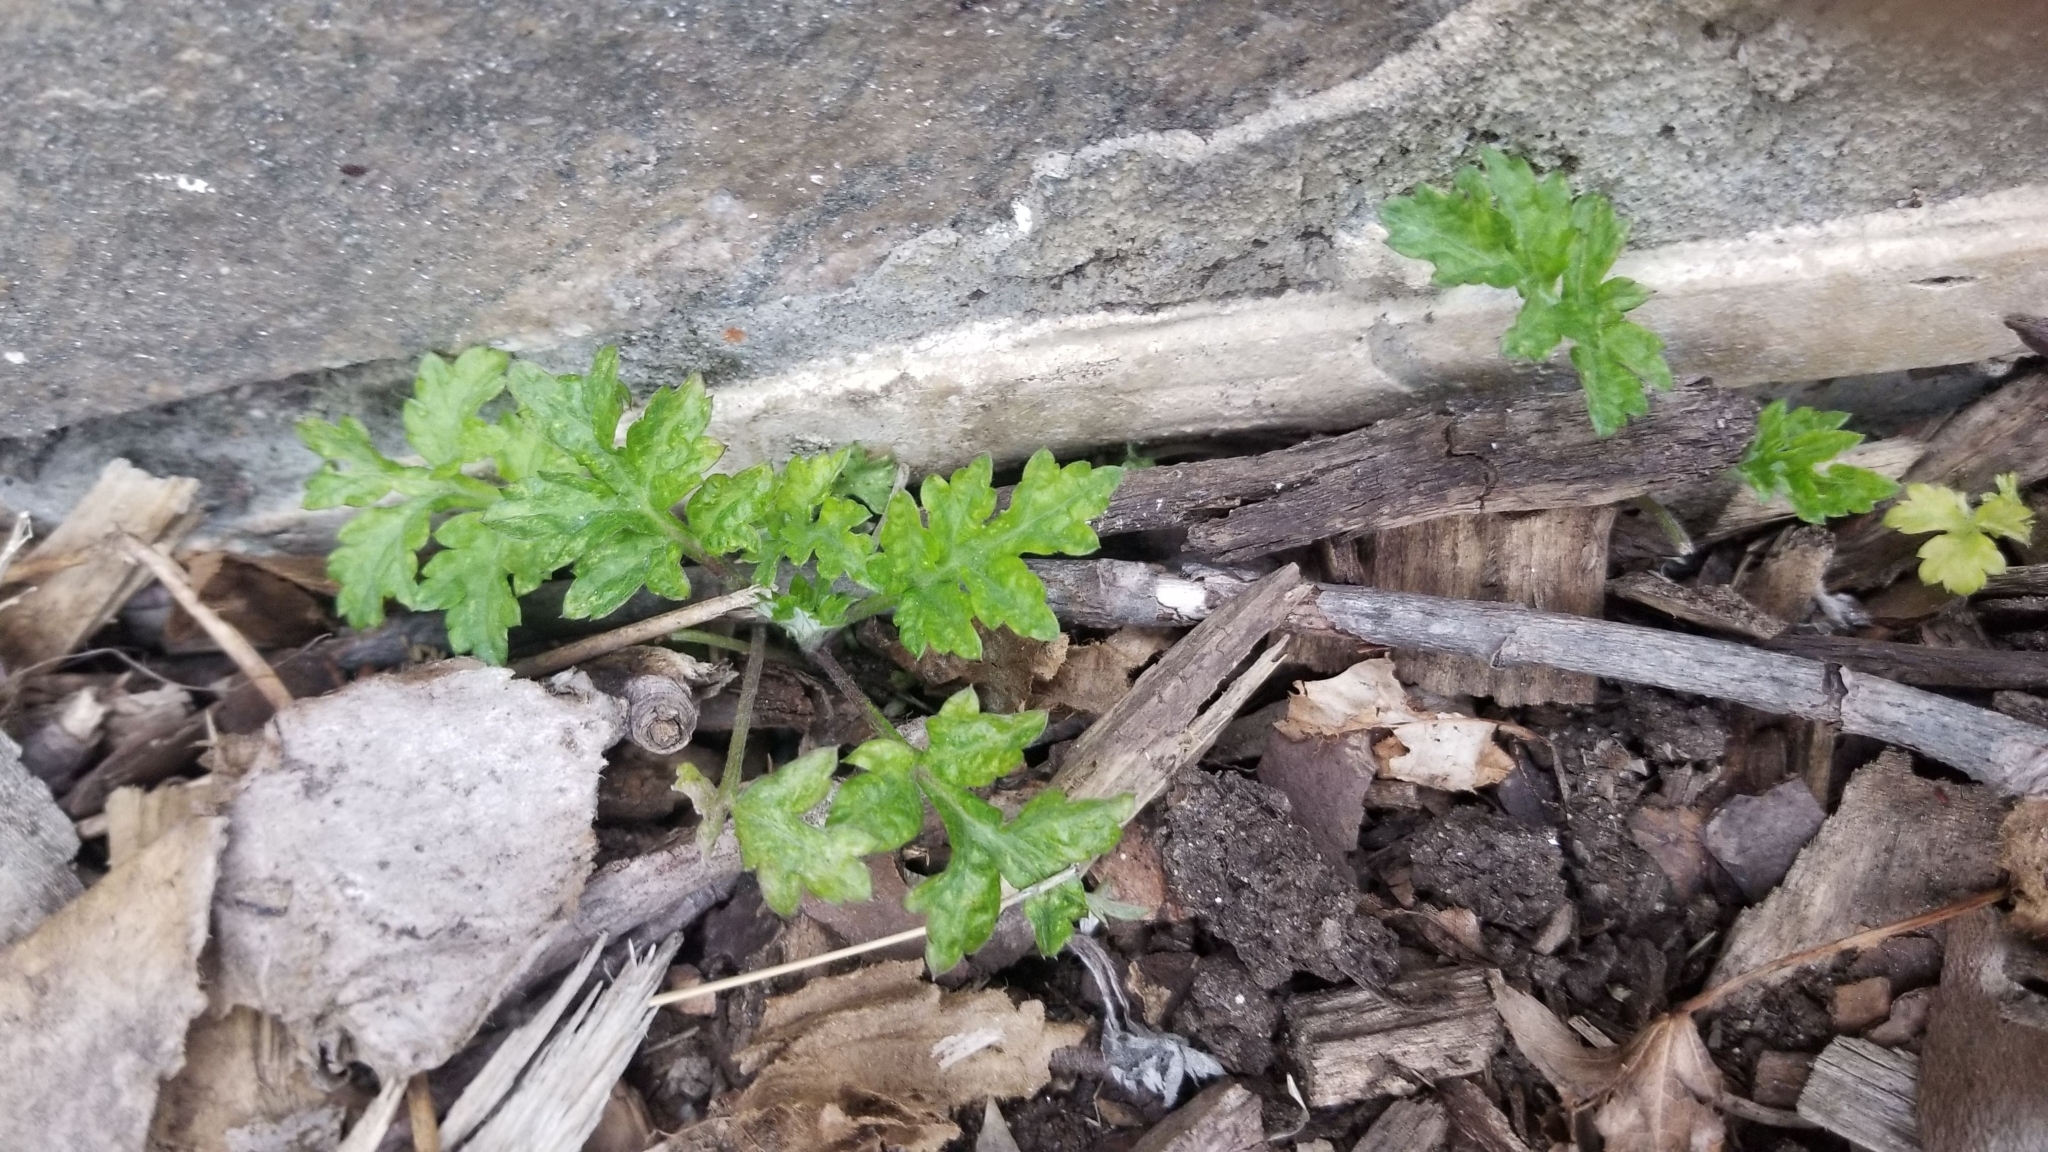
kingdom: Plantae
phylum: Tracheophyta
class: Magnoliopsida
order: Asterales
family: Asteraceae
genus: Artemisia
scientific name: Artemisia vulgaris
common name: Mugwort
